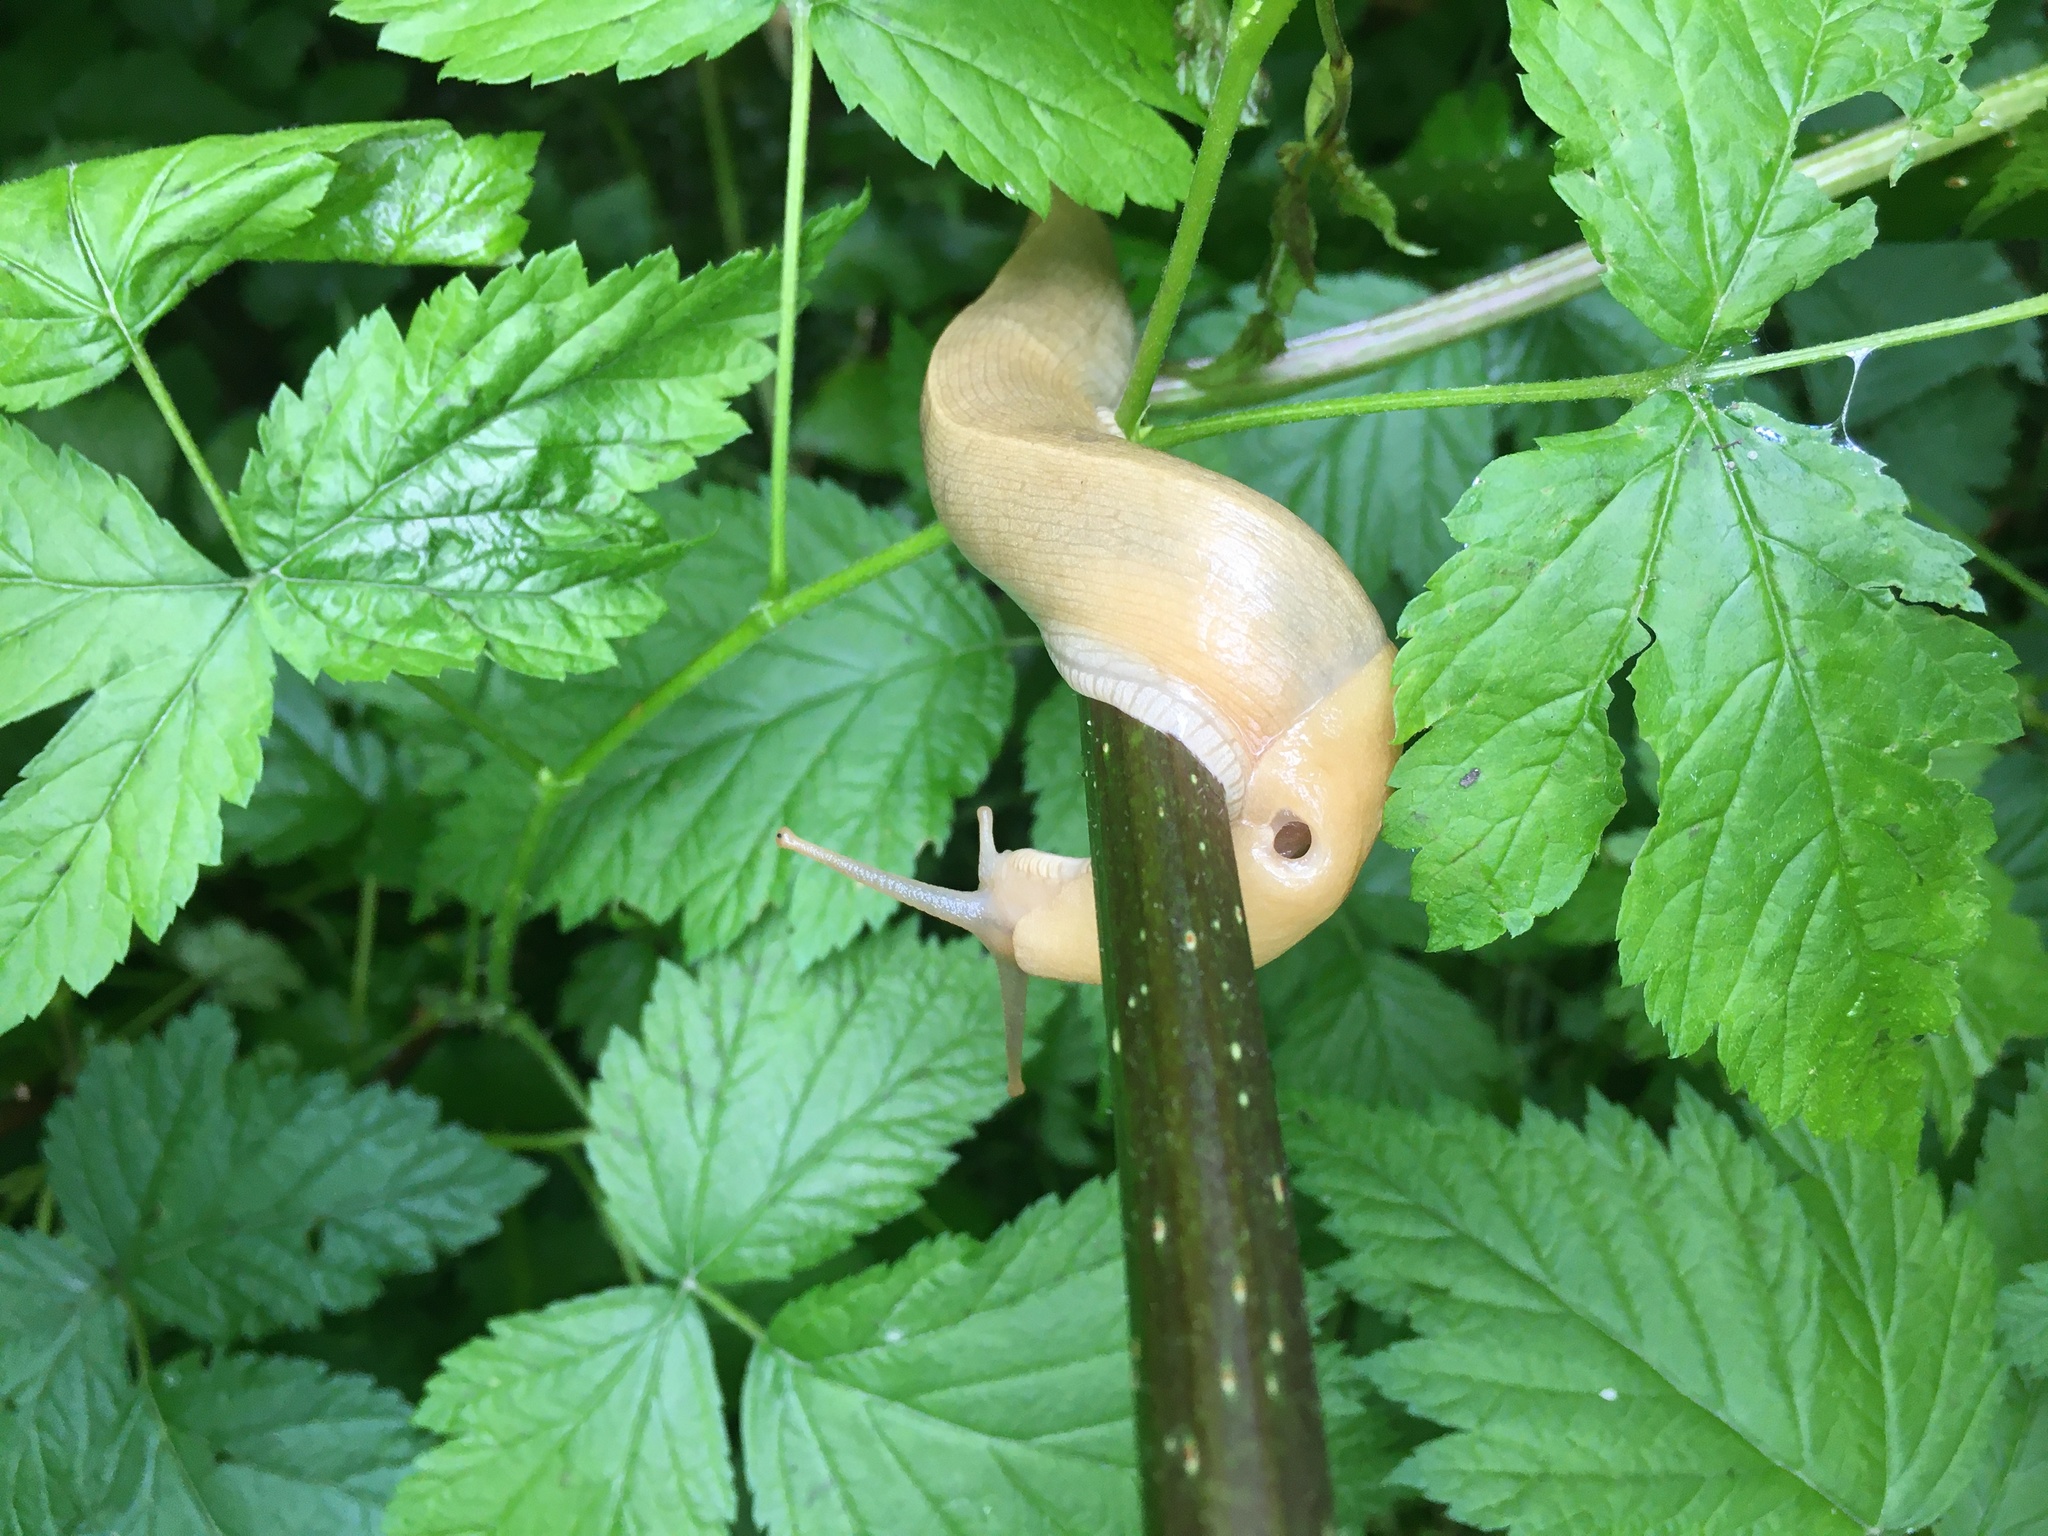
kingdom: Animalia
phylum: Mollusca
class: Gastropoda
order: Stylommatophora
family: Ariolimacidae
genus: Ariolimax
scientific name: Ariolimax columbianus
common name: Pacific banana slug
